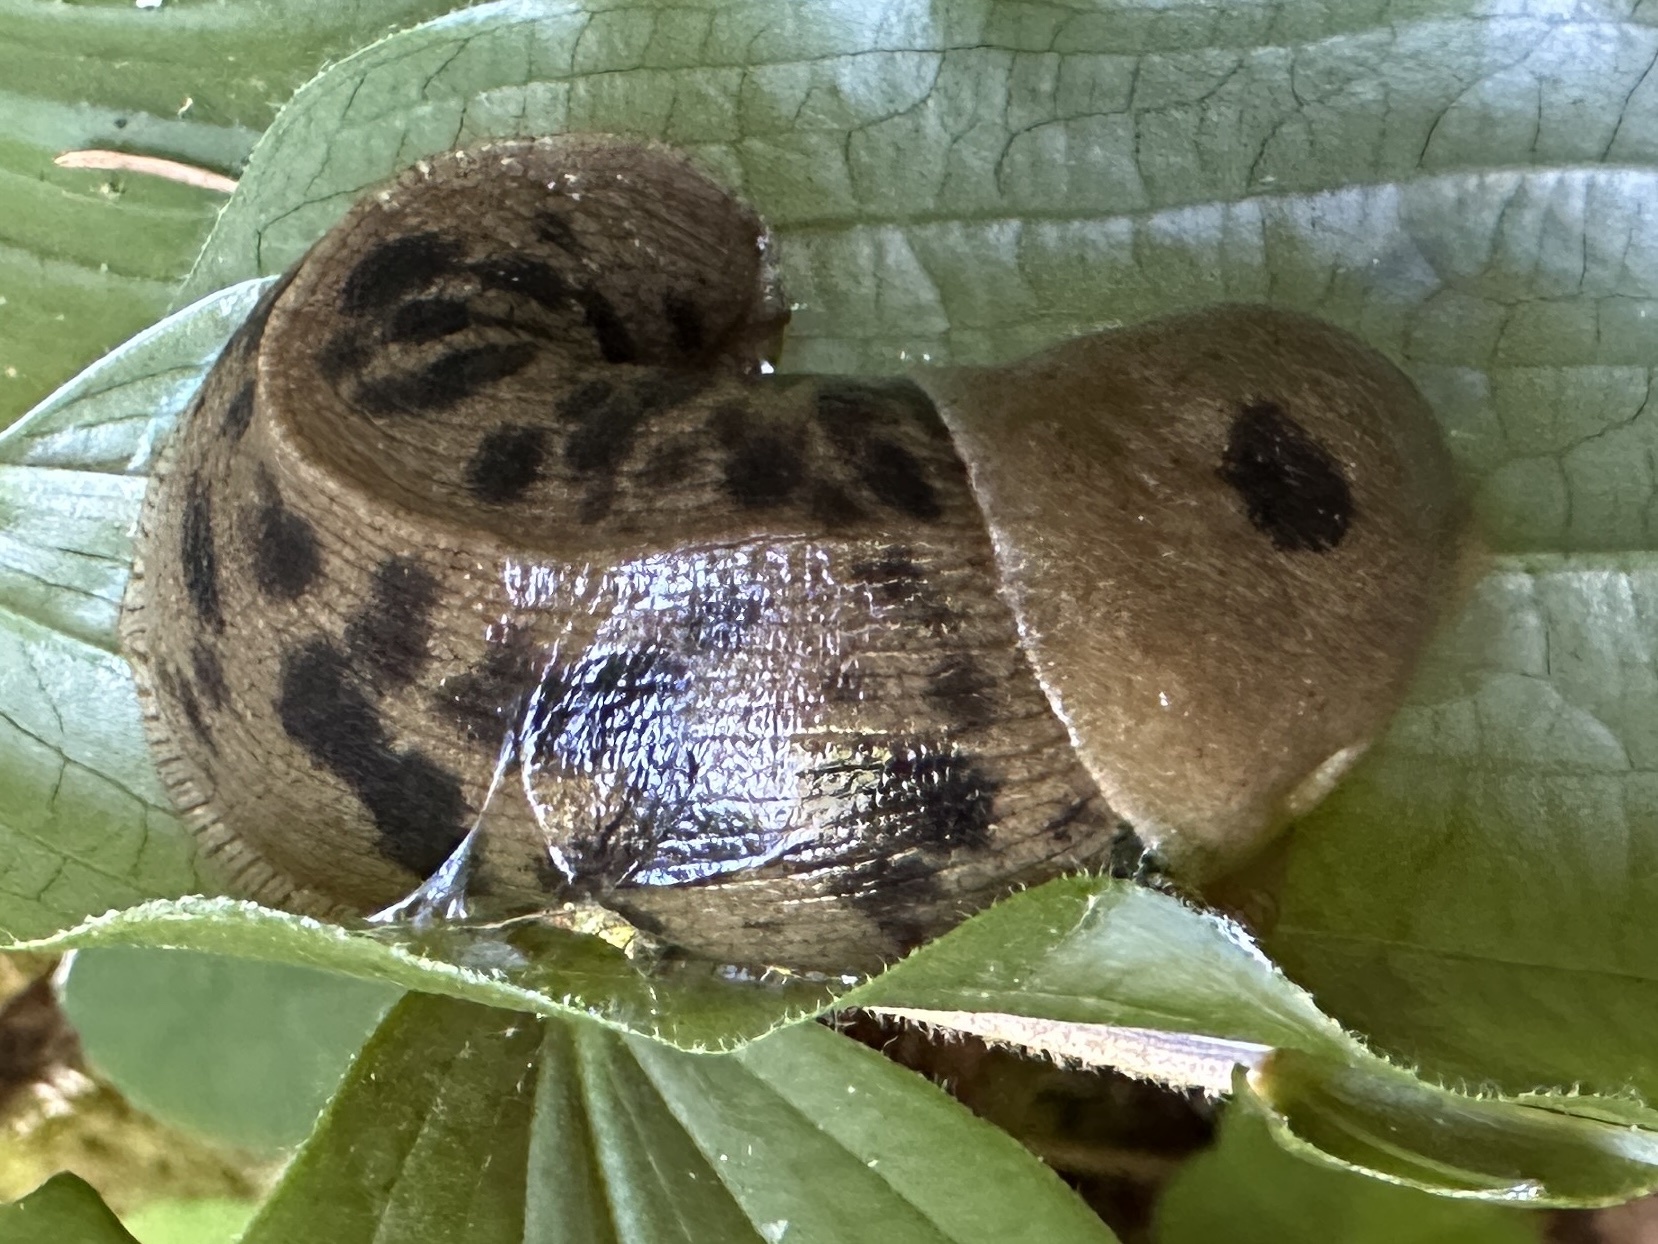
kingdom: Animalia
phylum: Mollusca
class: Gastropoda
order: Stylommatophora
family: Ariolimacidae
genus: Ariolimax
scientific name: Ariolimax columbianus
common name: Pacific banana slug
